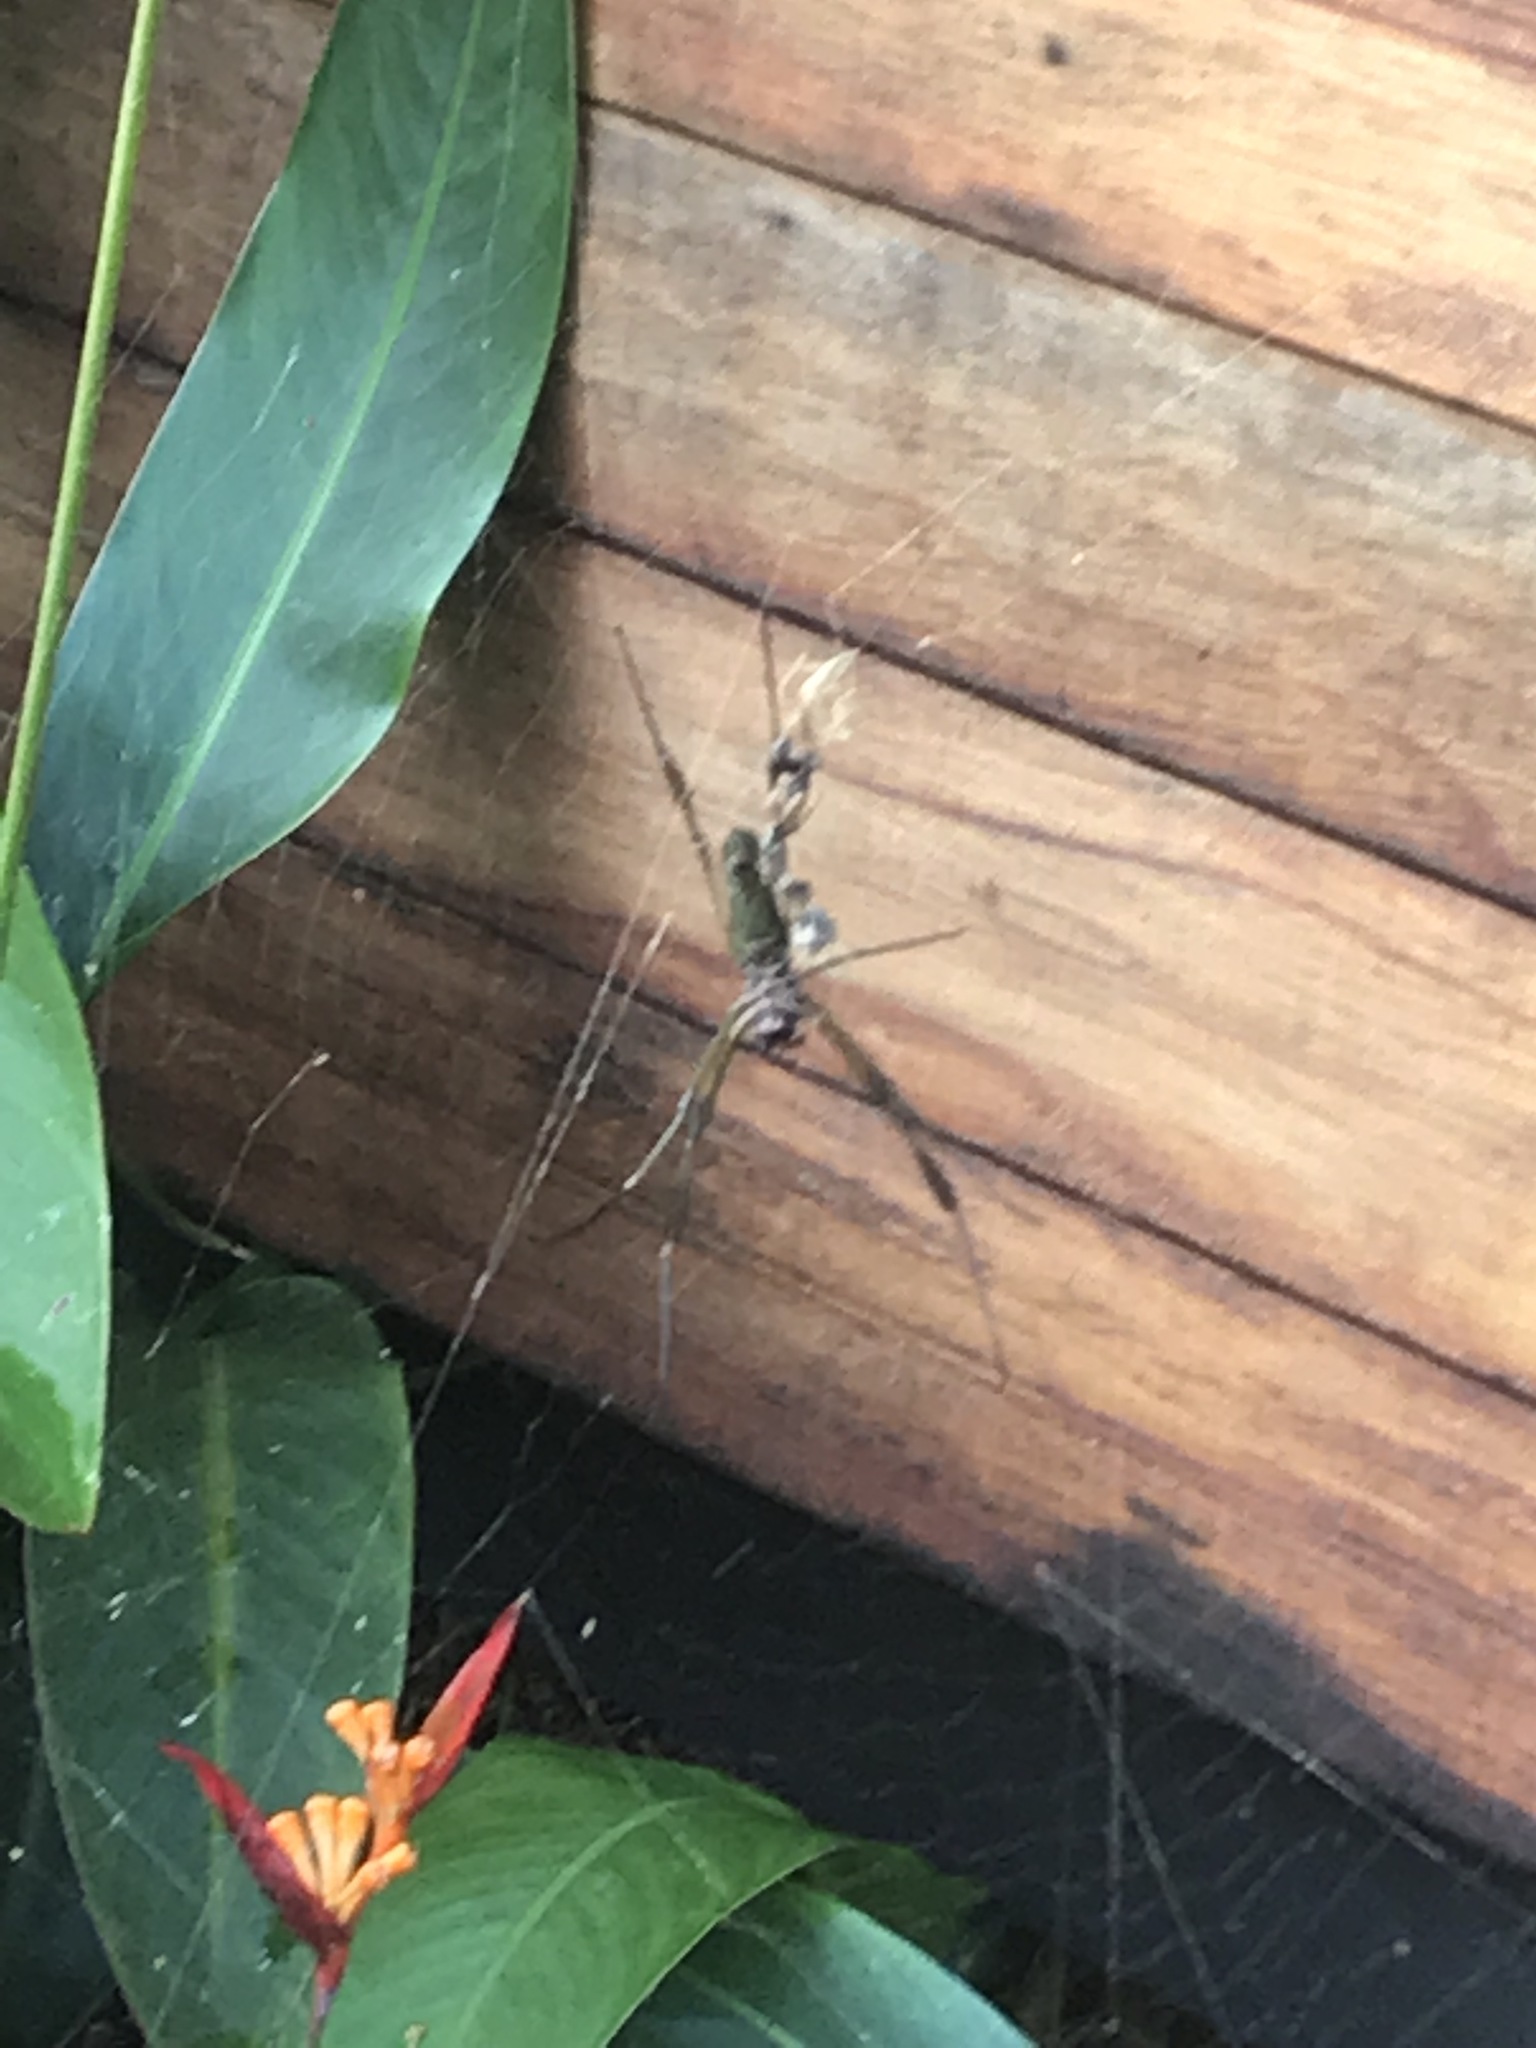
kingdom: Animalia
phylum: Arthropoda
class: Arachnida
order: Araneae
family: Araneidae
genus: Trichonephila
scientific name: Trichonephila clavipes
